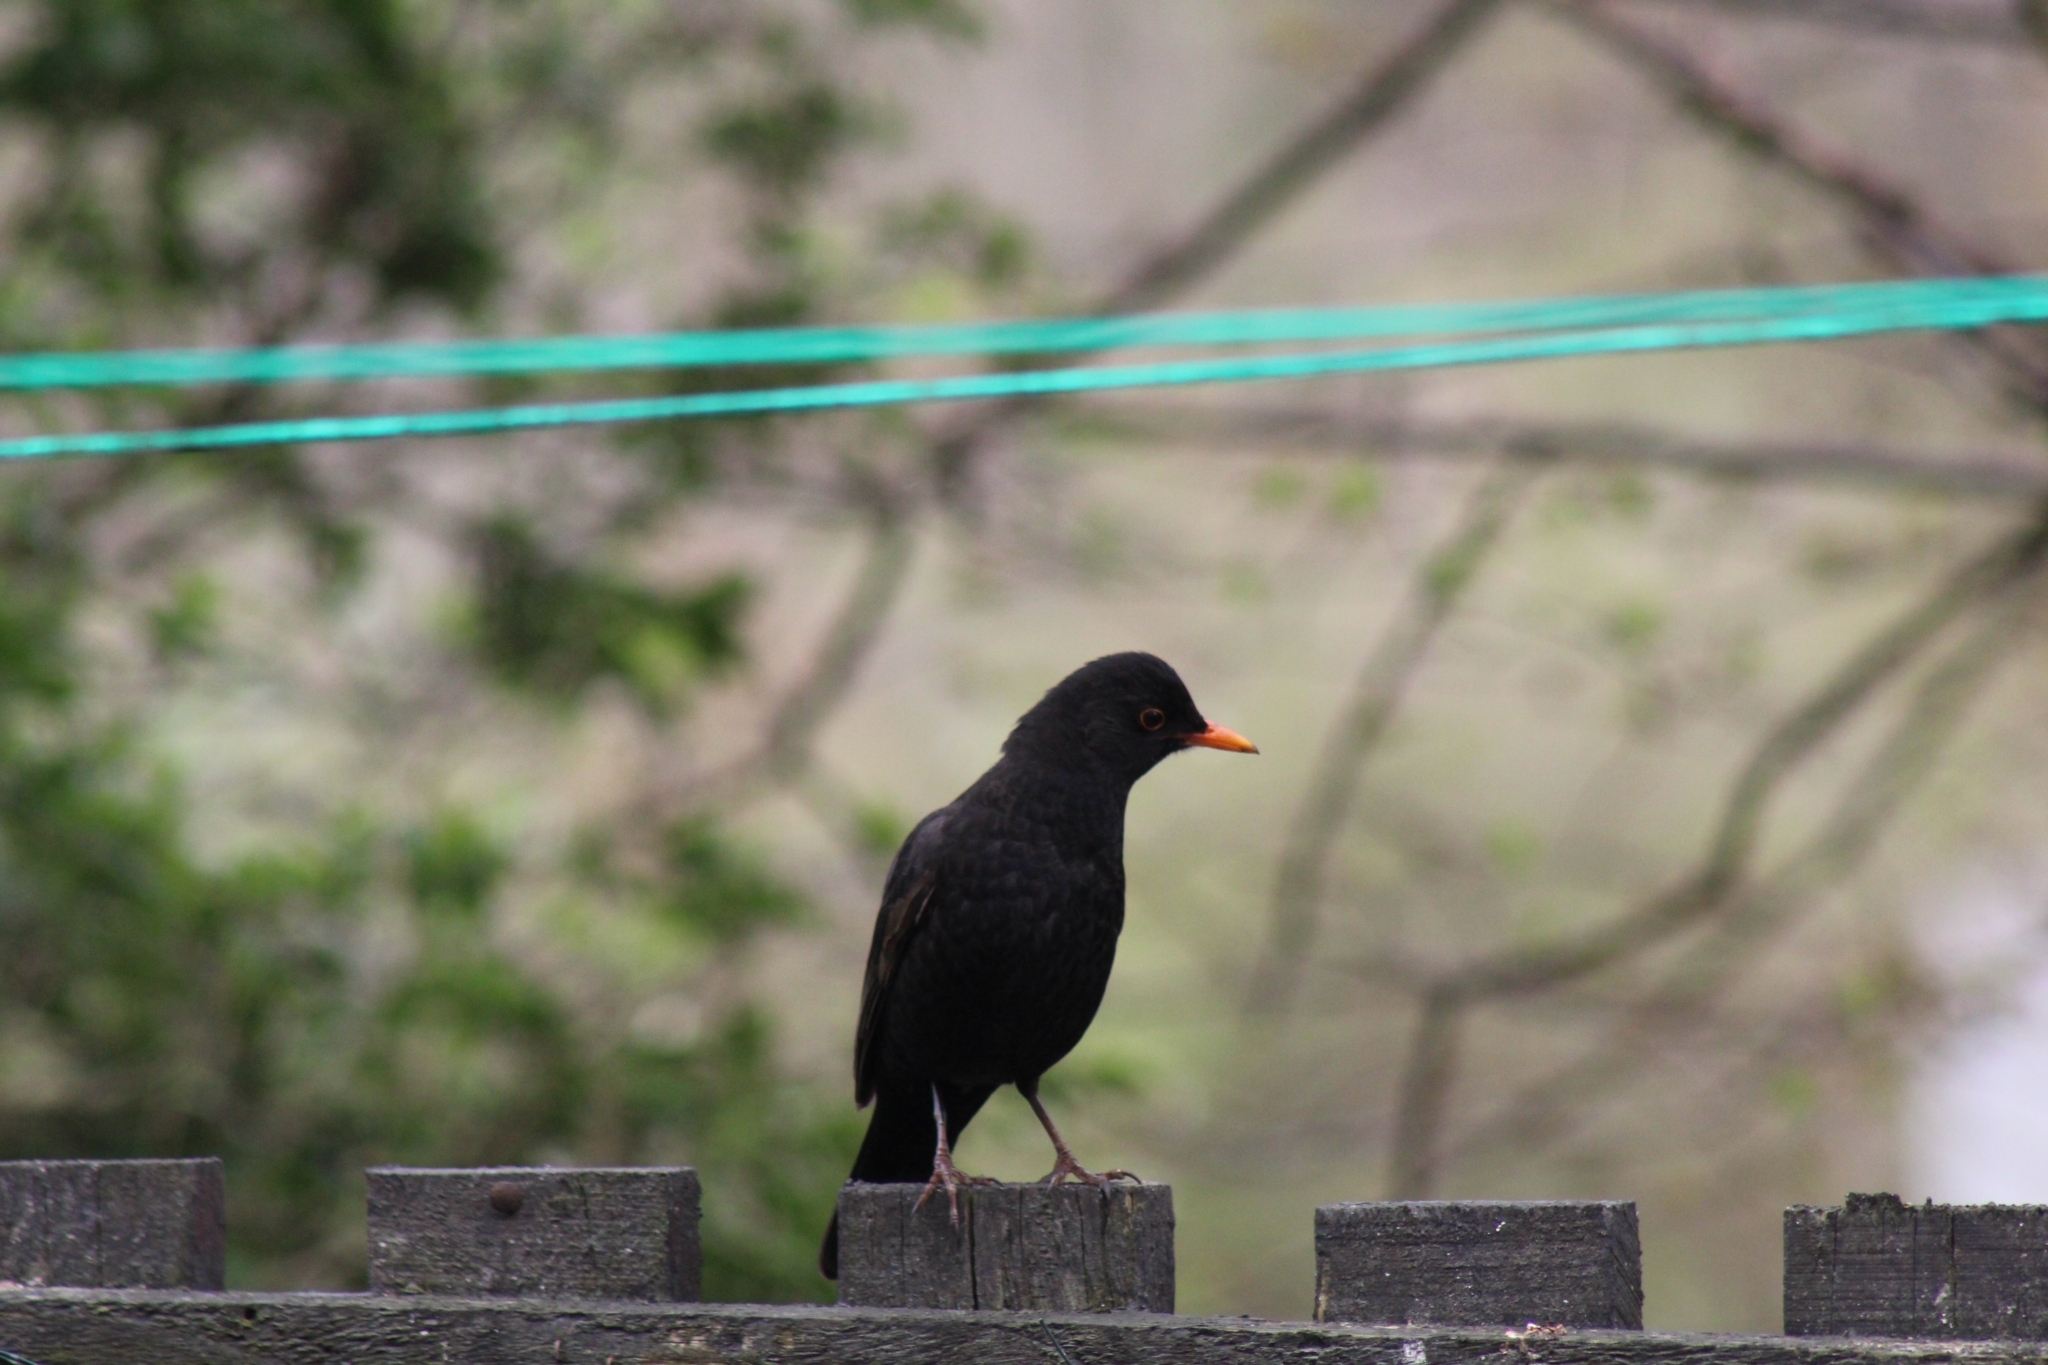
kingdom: Animalia
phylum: Chordata
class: Aves
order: Passeriformes
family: Turdidae
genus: Turdus
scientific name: Turdus merula
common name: Common blackbird
